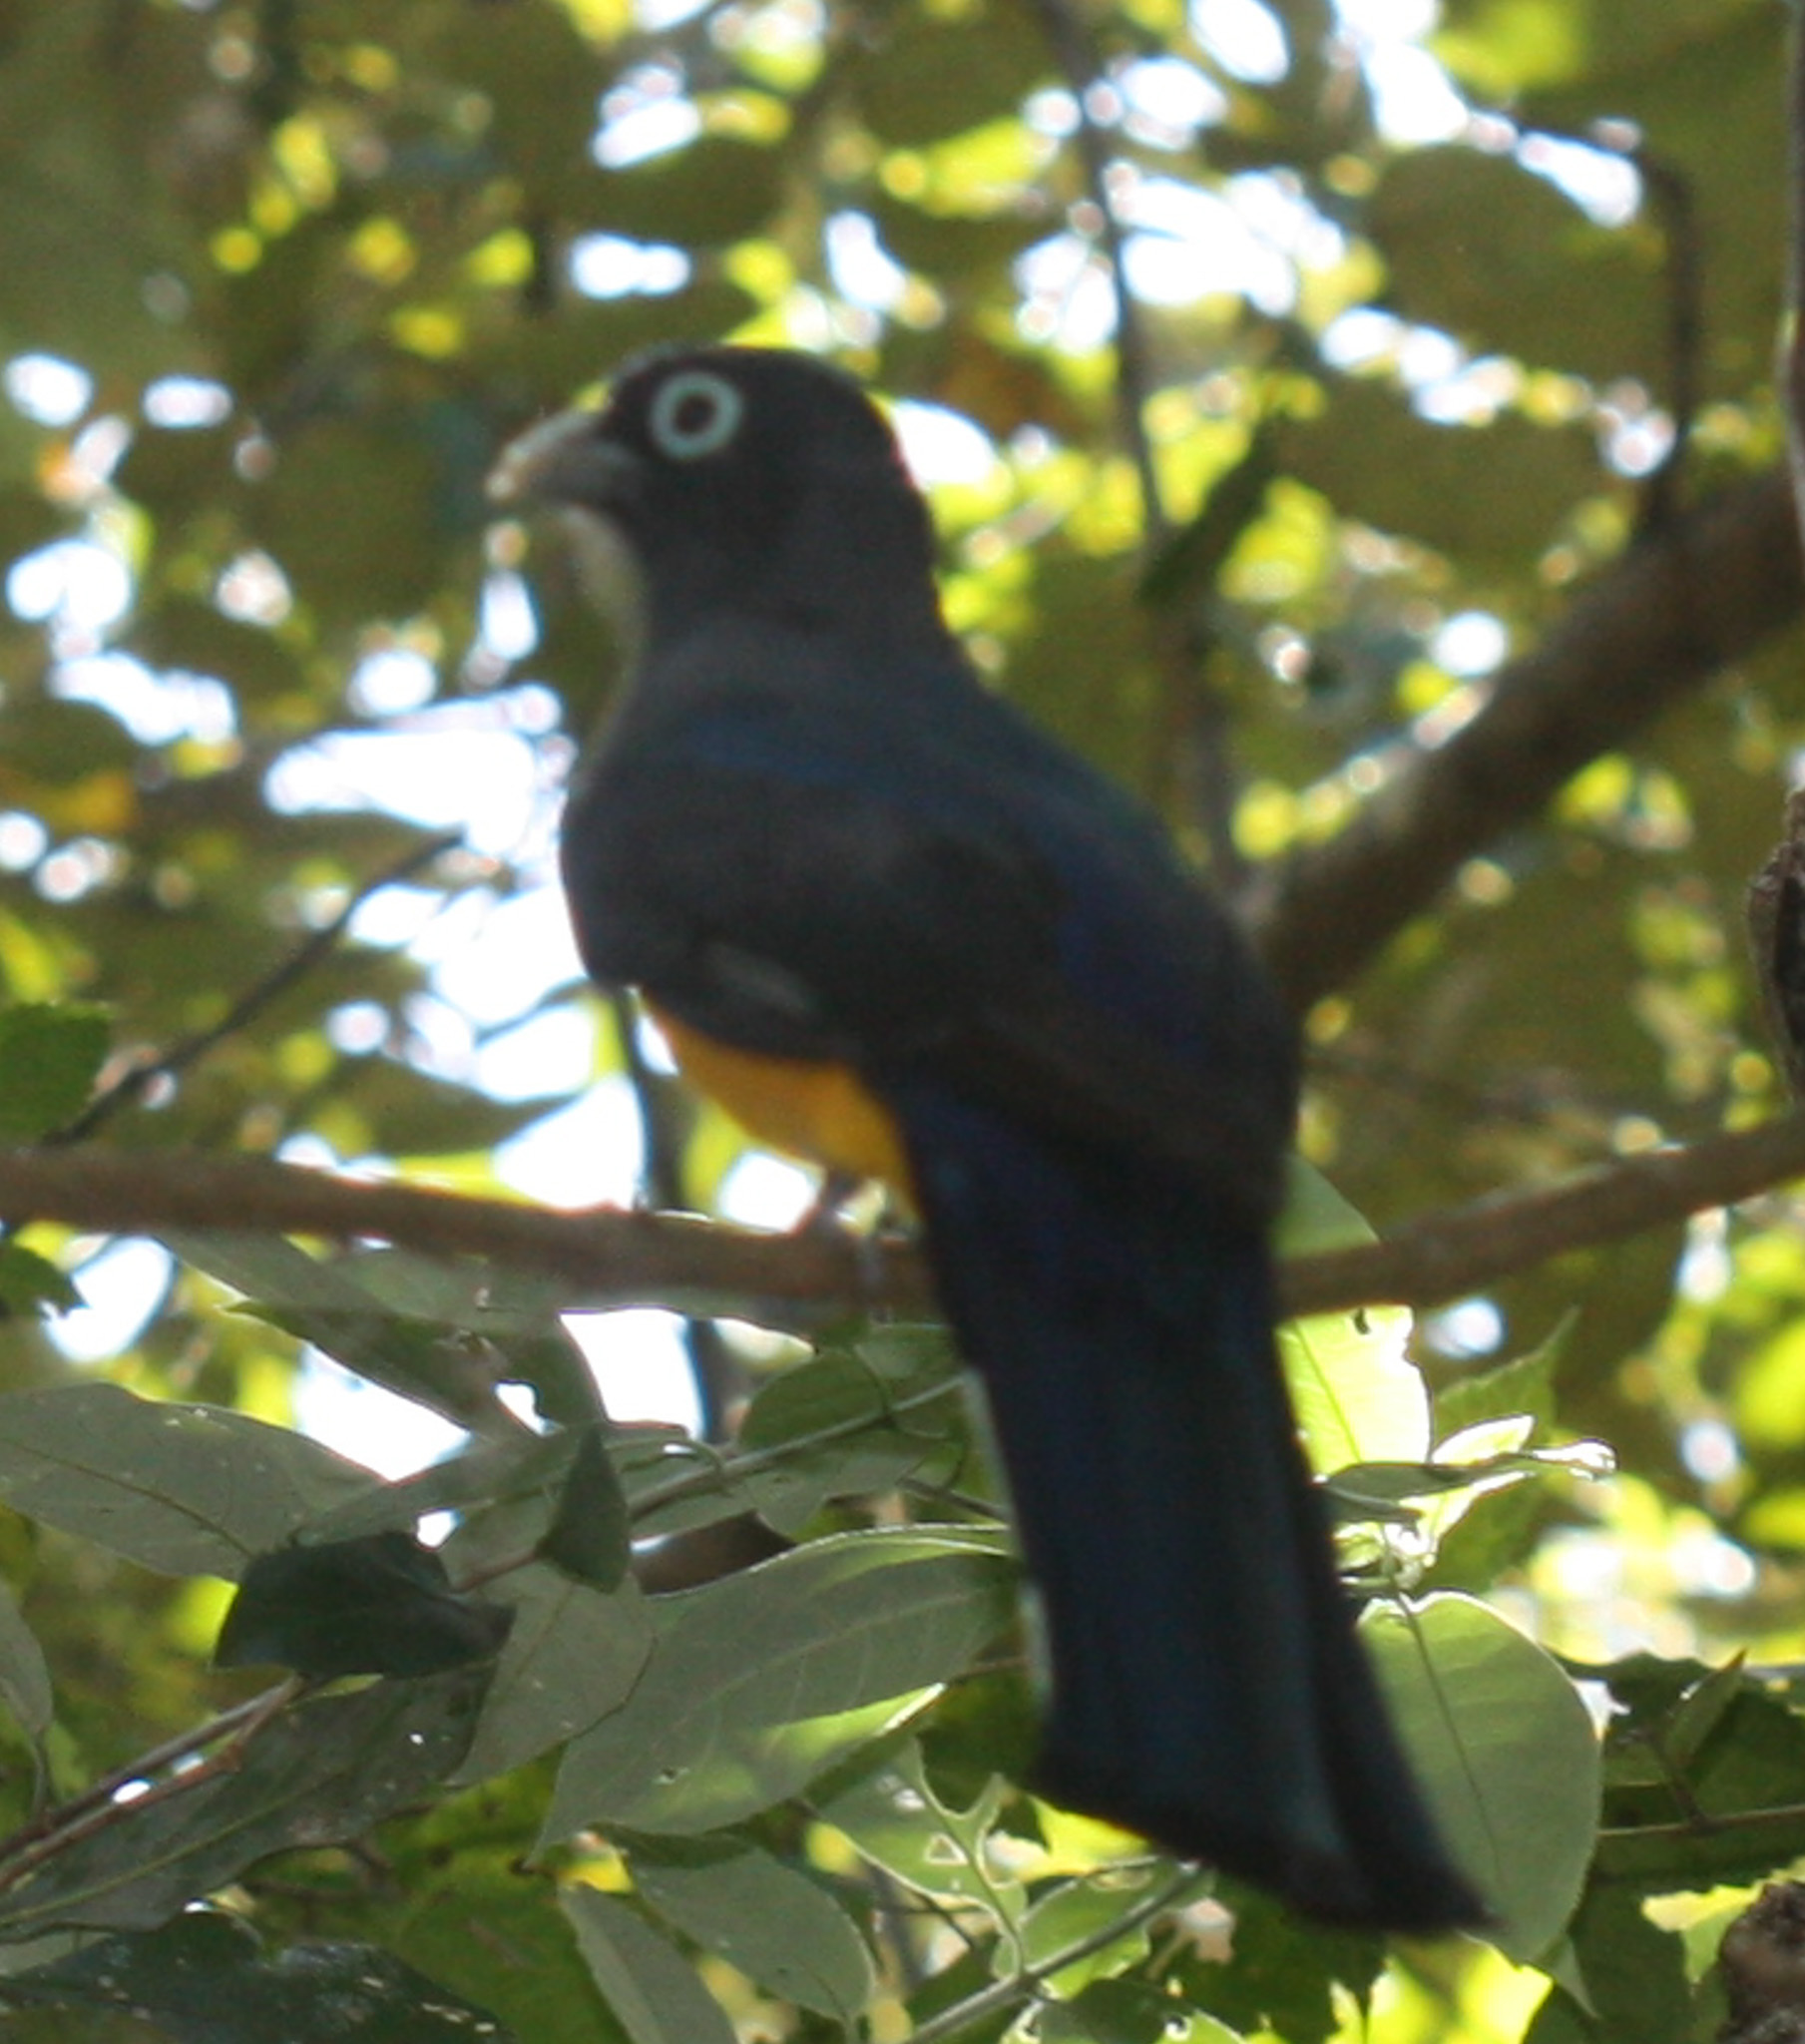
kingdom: Animalia
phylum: Chordata
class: Aves
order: Trogoniformes
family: Trogonidae
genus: Trogon
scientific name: Trogon melanocephalus
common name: Black-headed trogon
